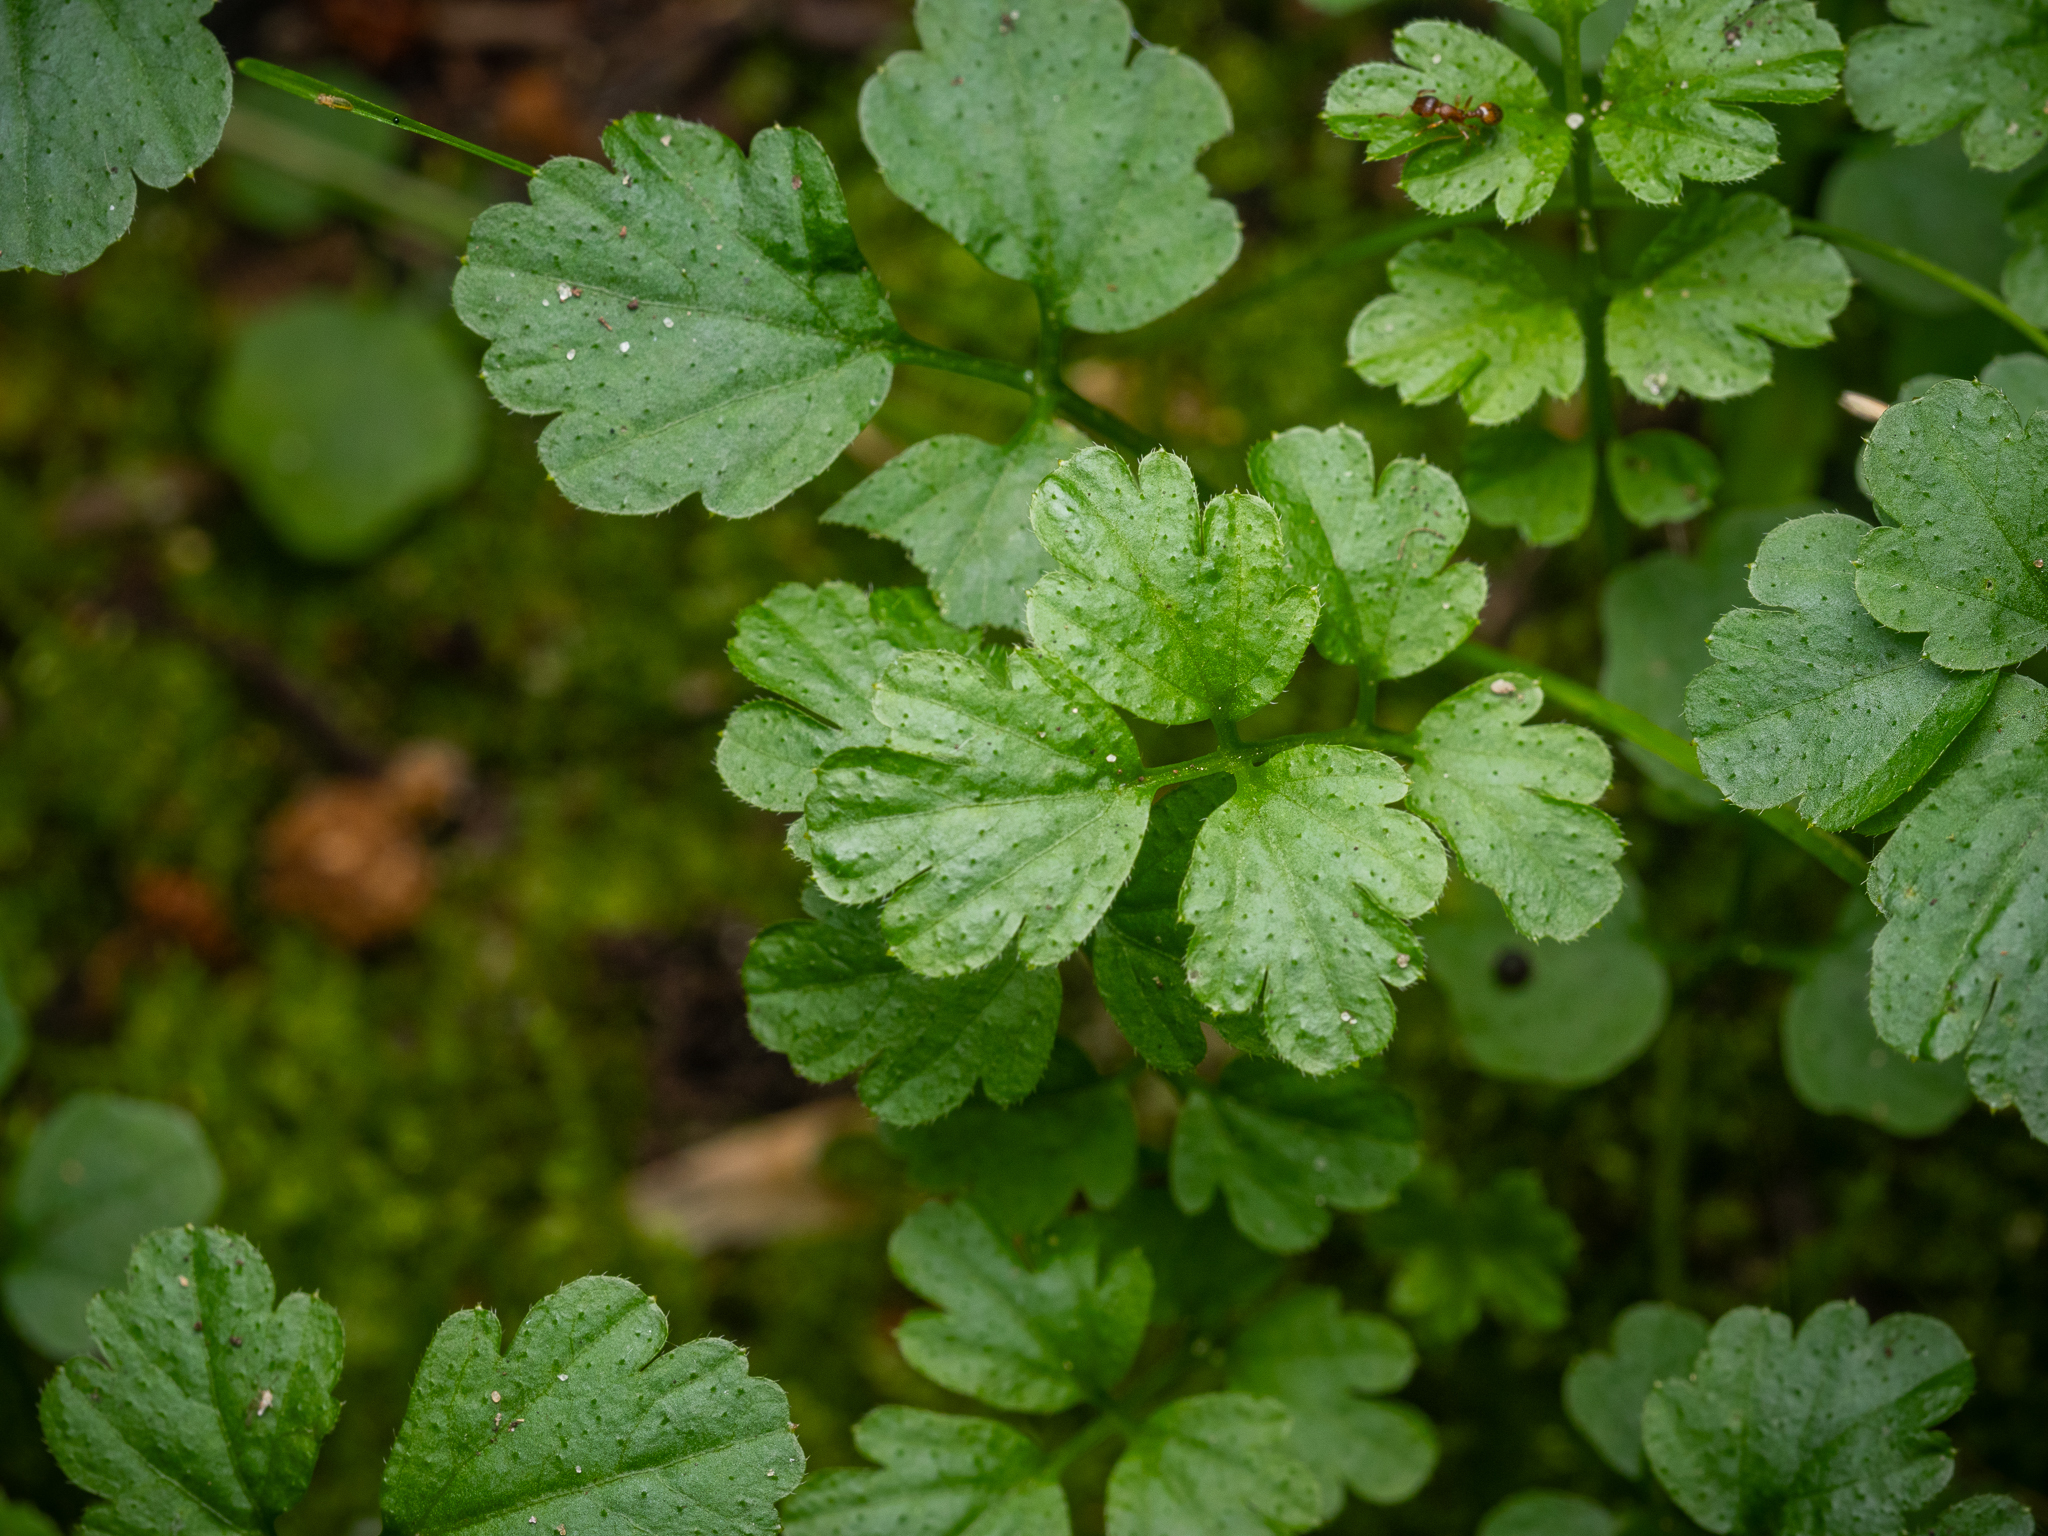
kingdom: Plantae
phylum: Tracheophyta
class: Magnoliopsida
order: Brassicales
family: Brassicaceae
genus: Cardamine
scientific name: Cardamine impatiens
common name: Narrow-leaved bitter-cress
